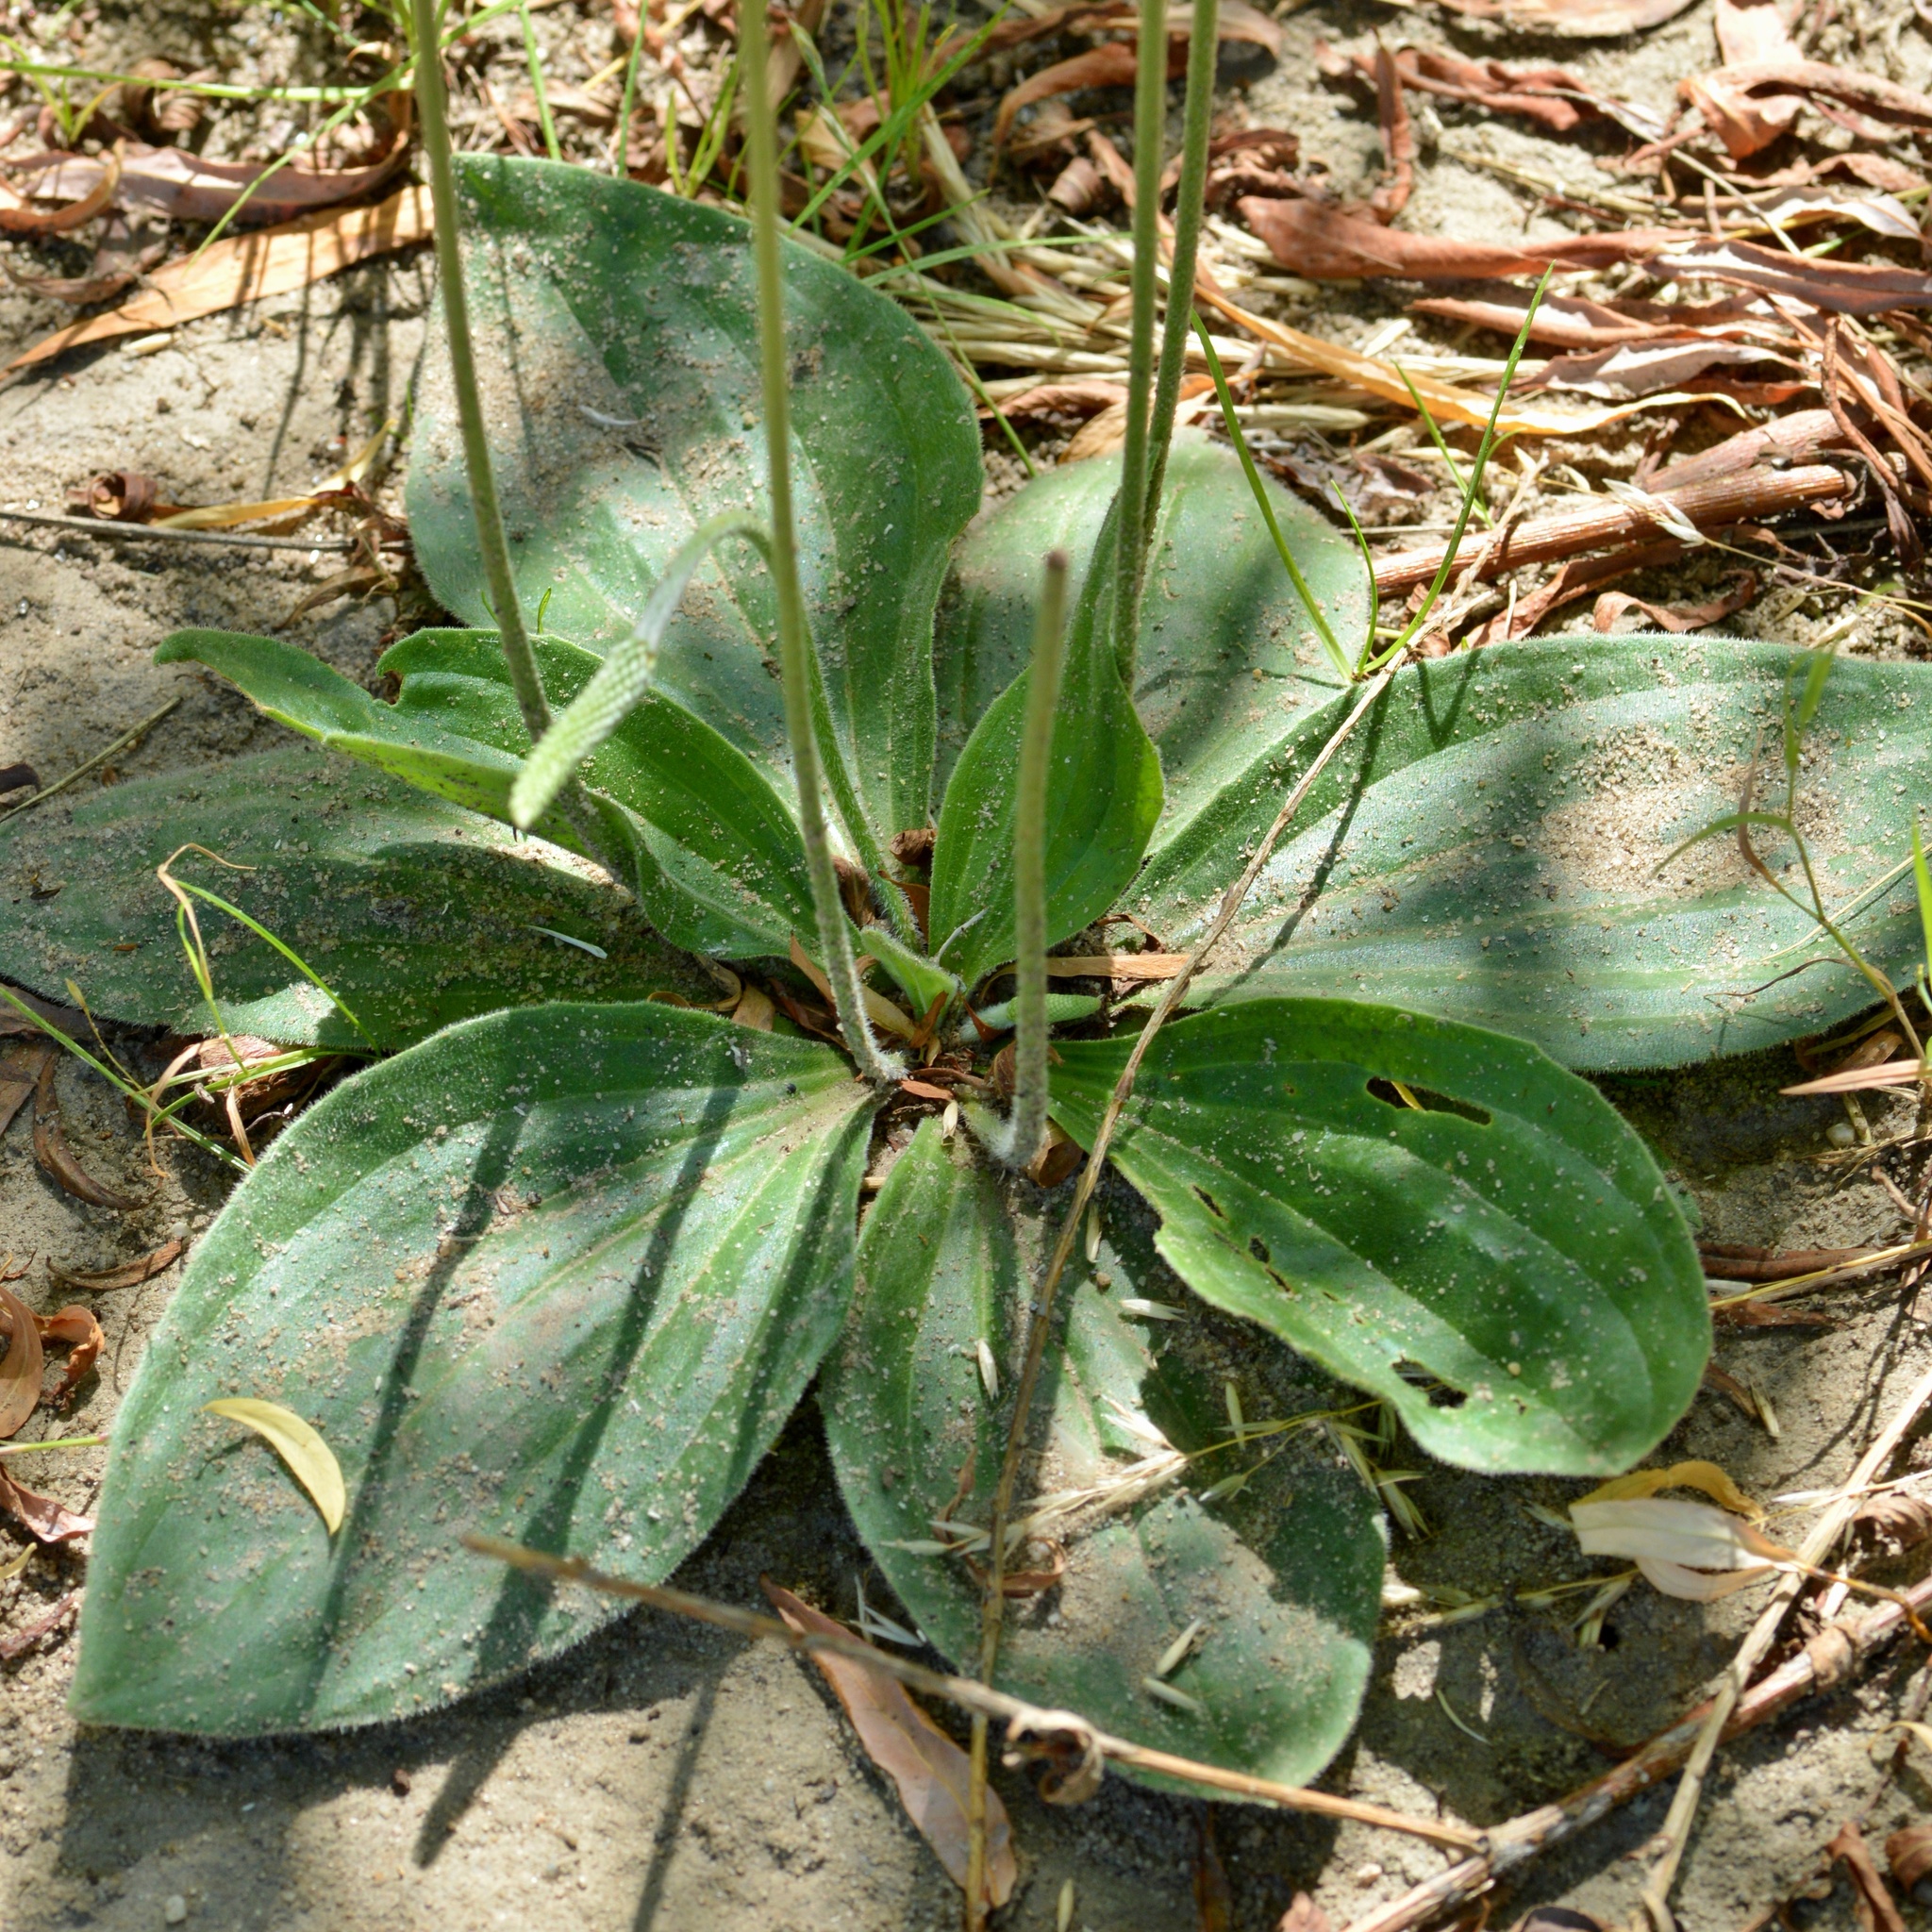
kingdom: Plantae
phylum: Tracheophyta
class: Magnoliopsida
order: Lamiales
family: Plantaginaceae
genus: Plantago
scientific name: Plantago media
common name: Hoary plantain
